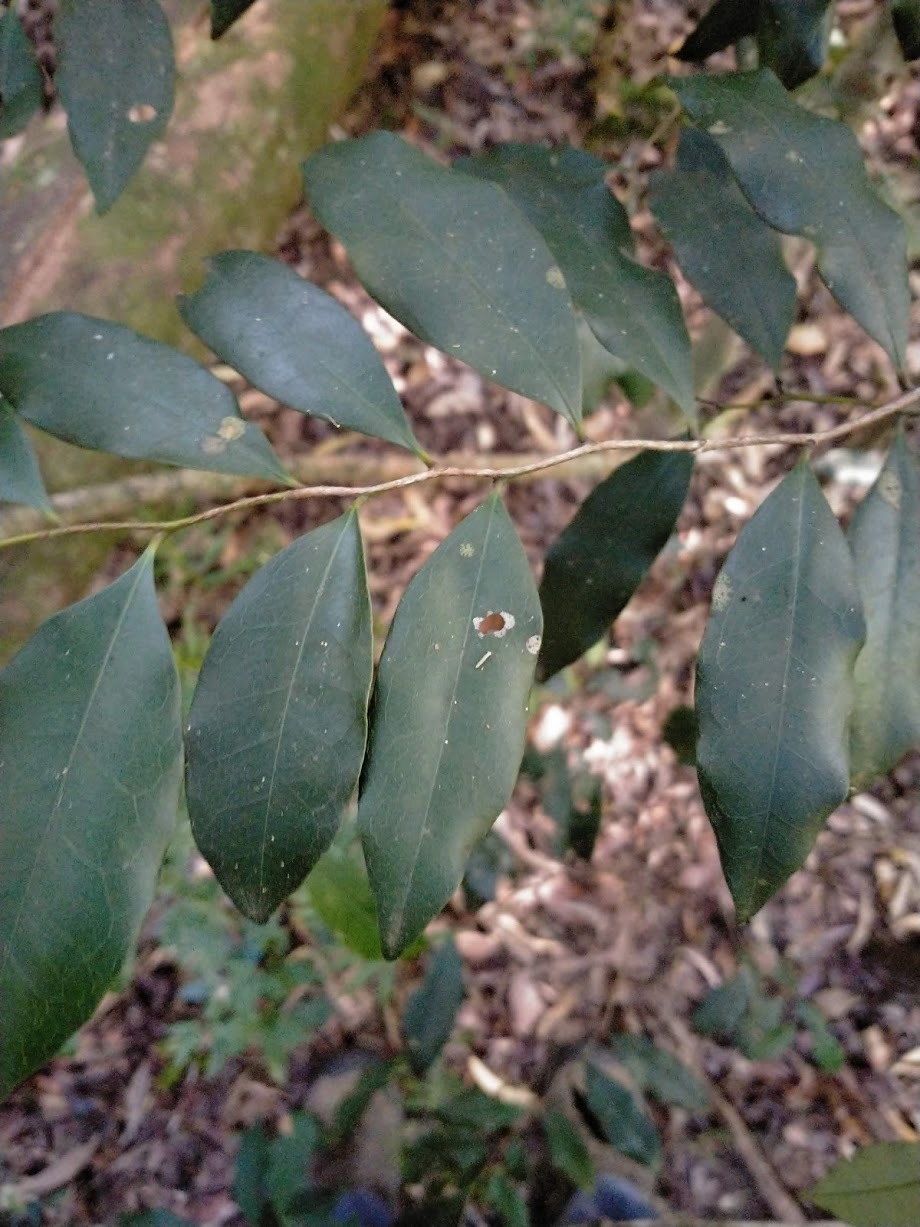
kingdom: Plantae
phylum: Tracheophyta
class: Magnoliopsida
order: Ericales
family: Ebenaceae
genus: Diospyros
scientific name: Diospyros pentamera
